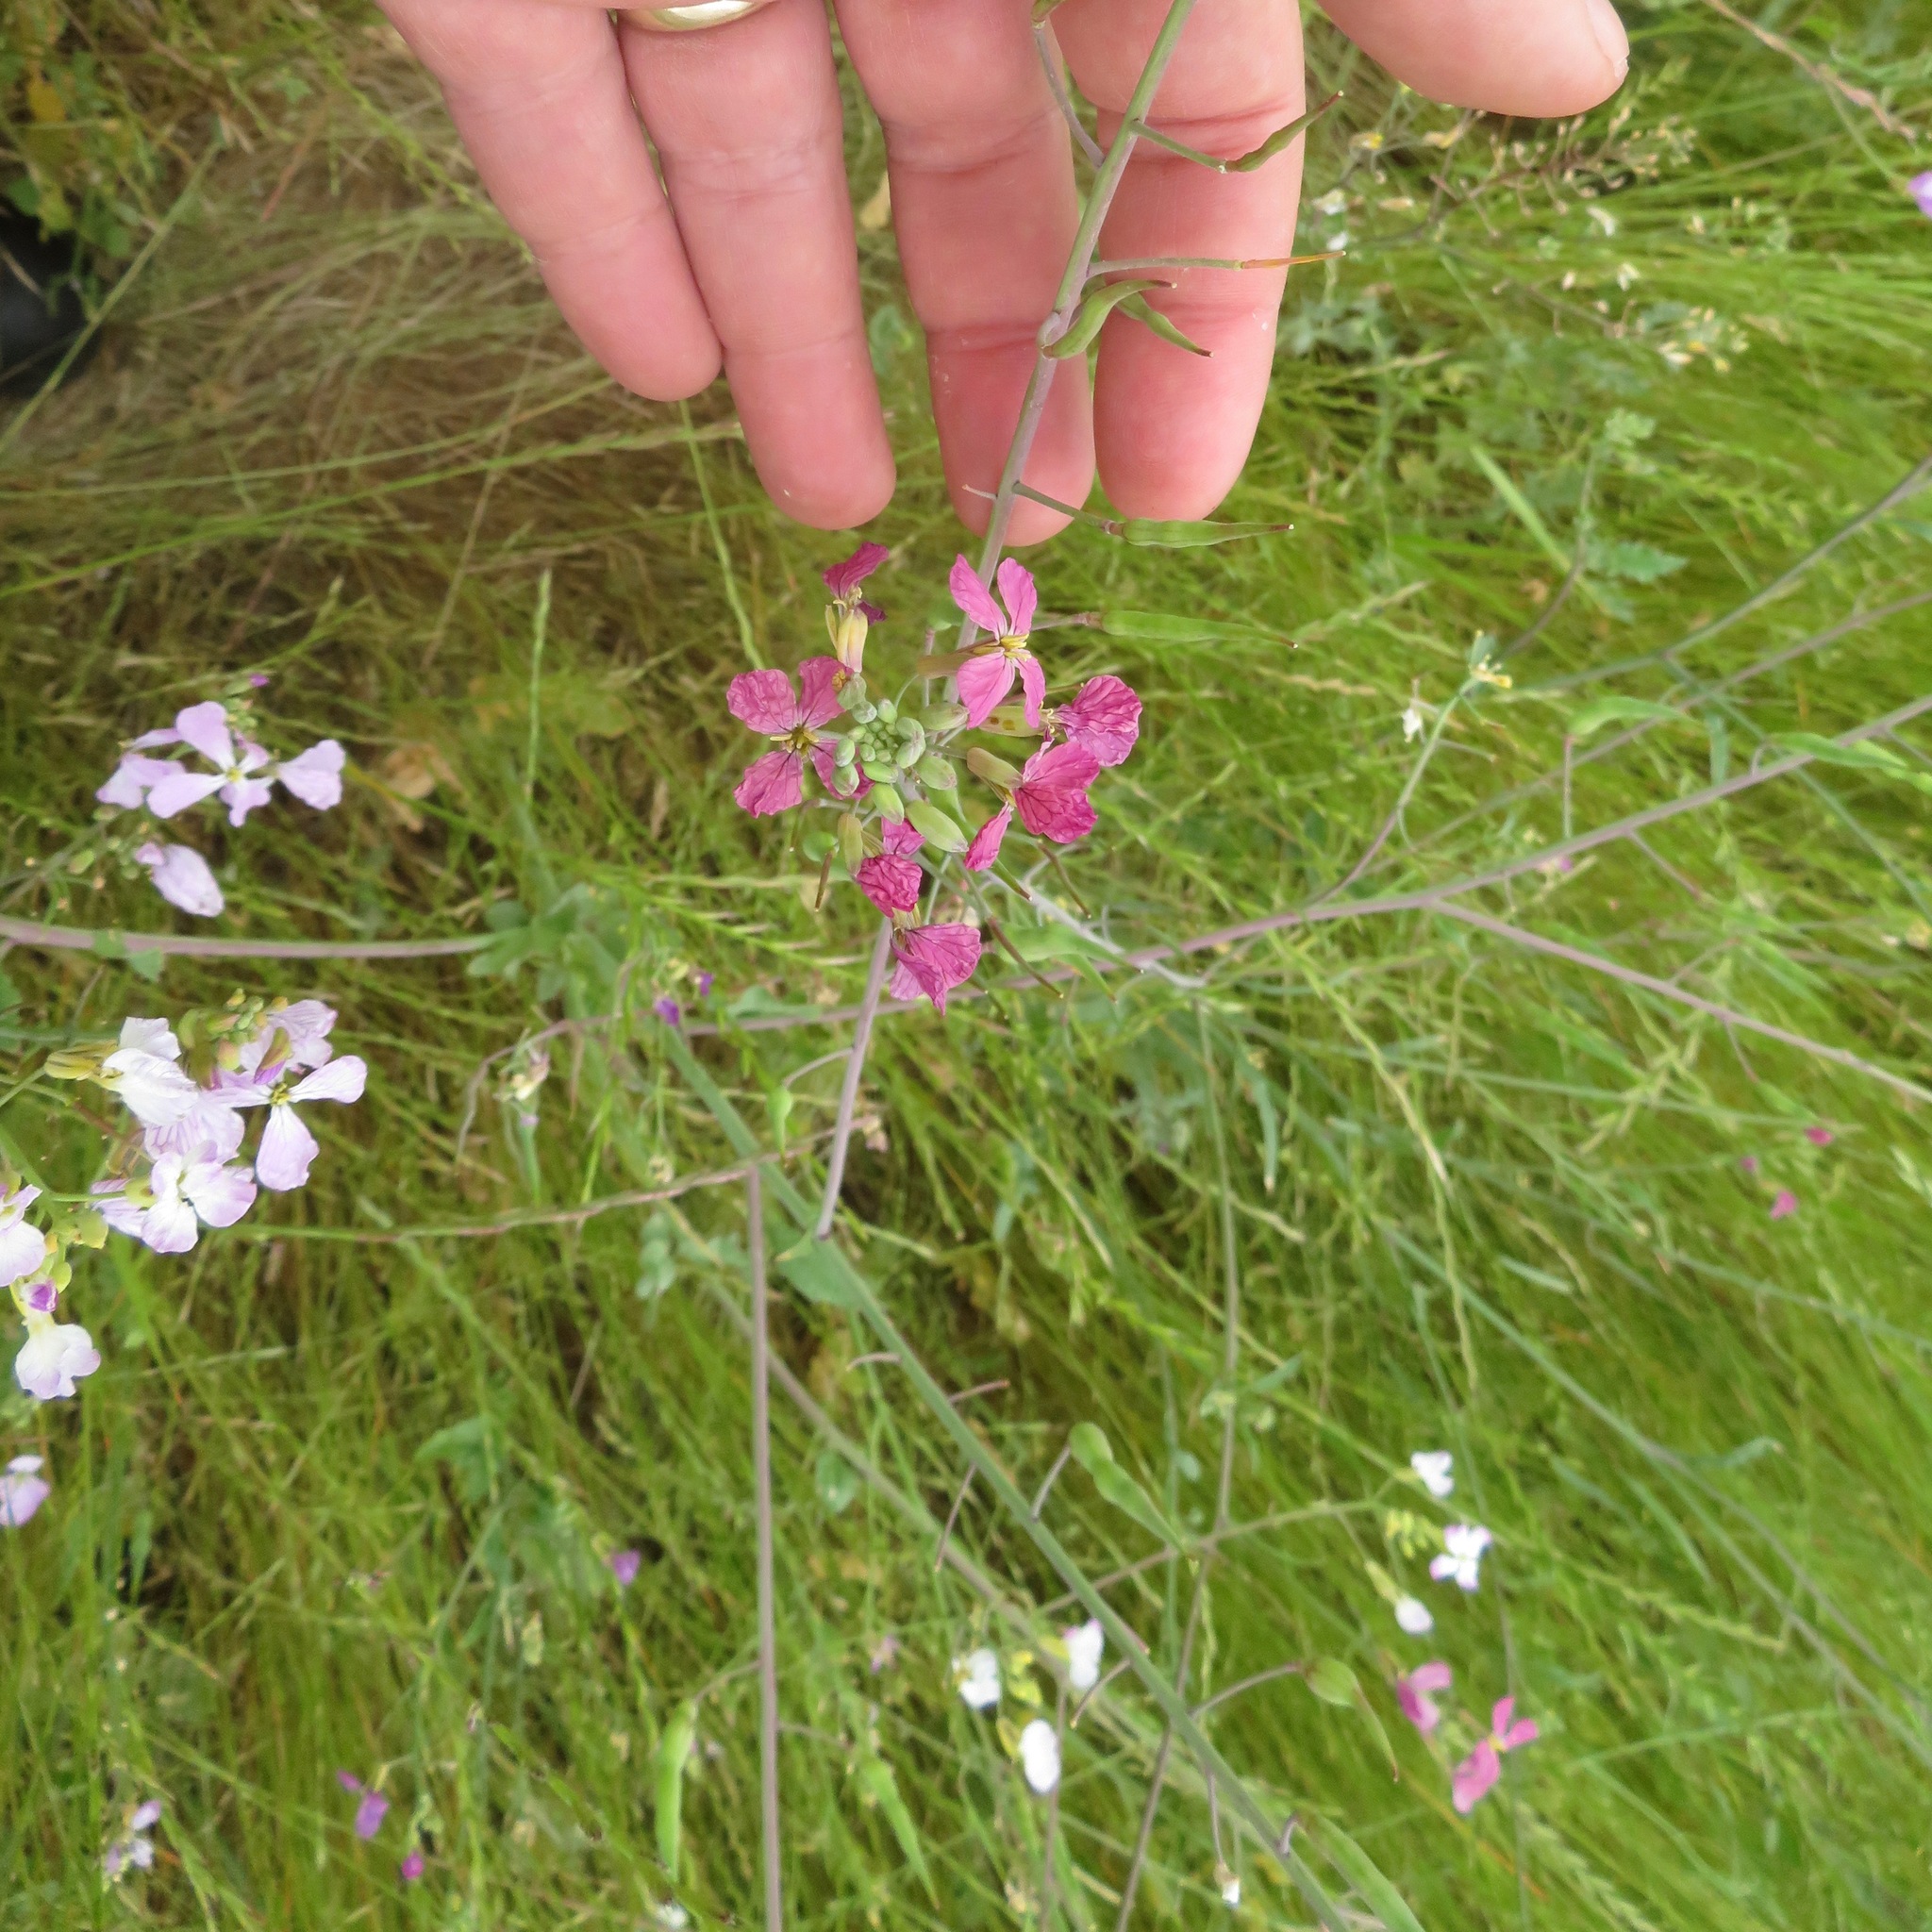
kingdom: Plantae
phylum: Tracheophyta
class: Magnoliopsida
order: Brassicales
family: Brassicaceae
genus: Raphanus
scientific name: Raphanus sativus
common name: Cultivated radish
